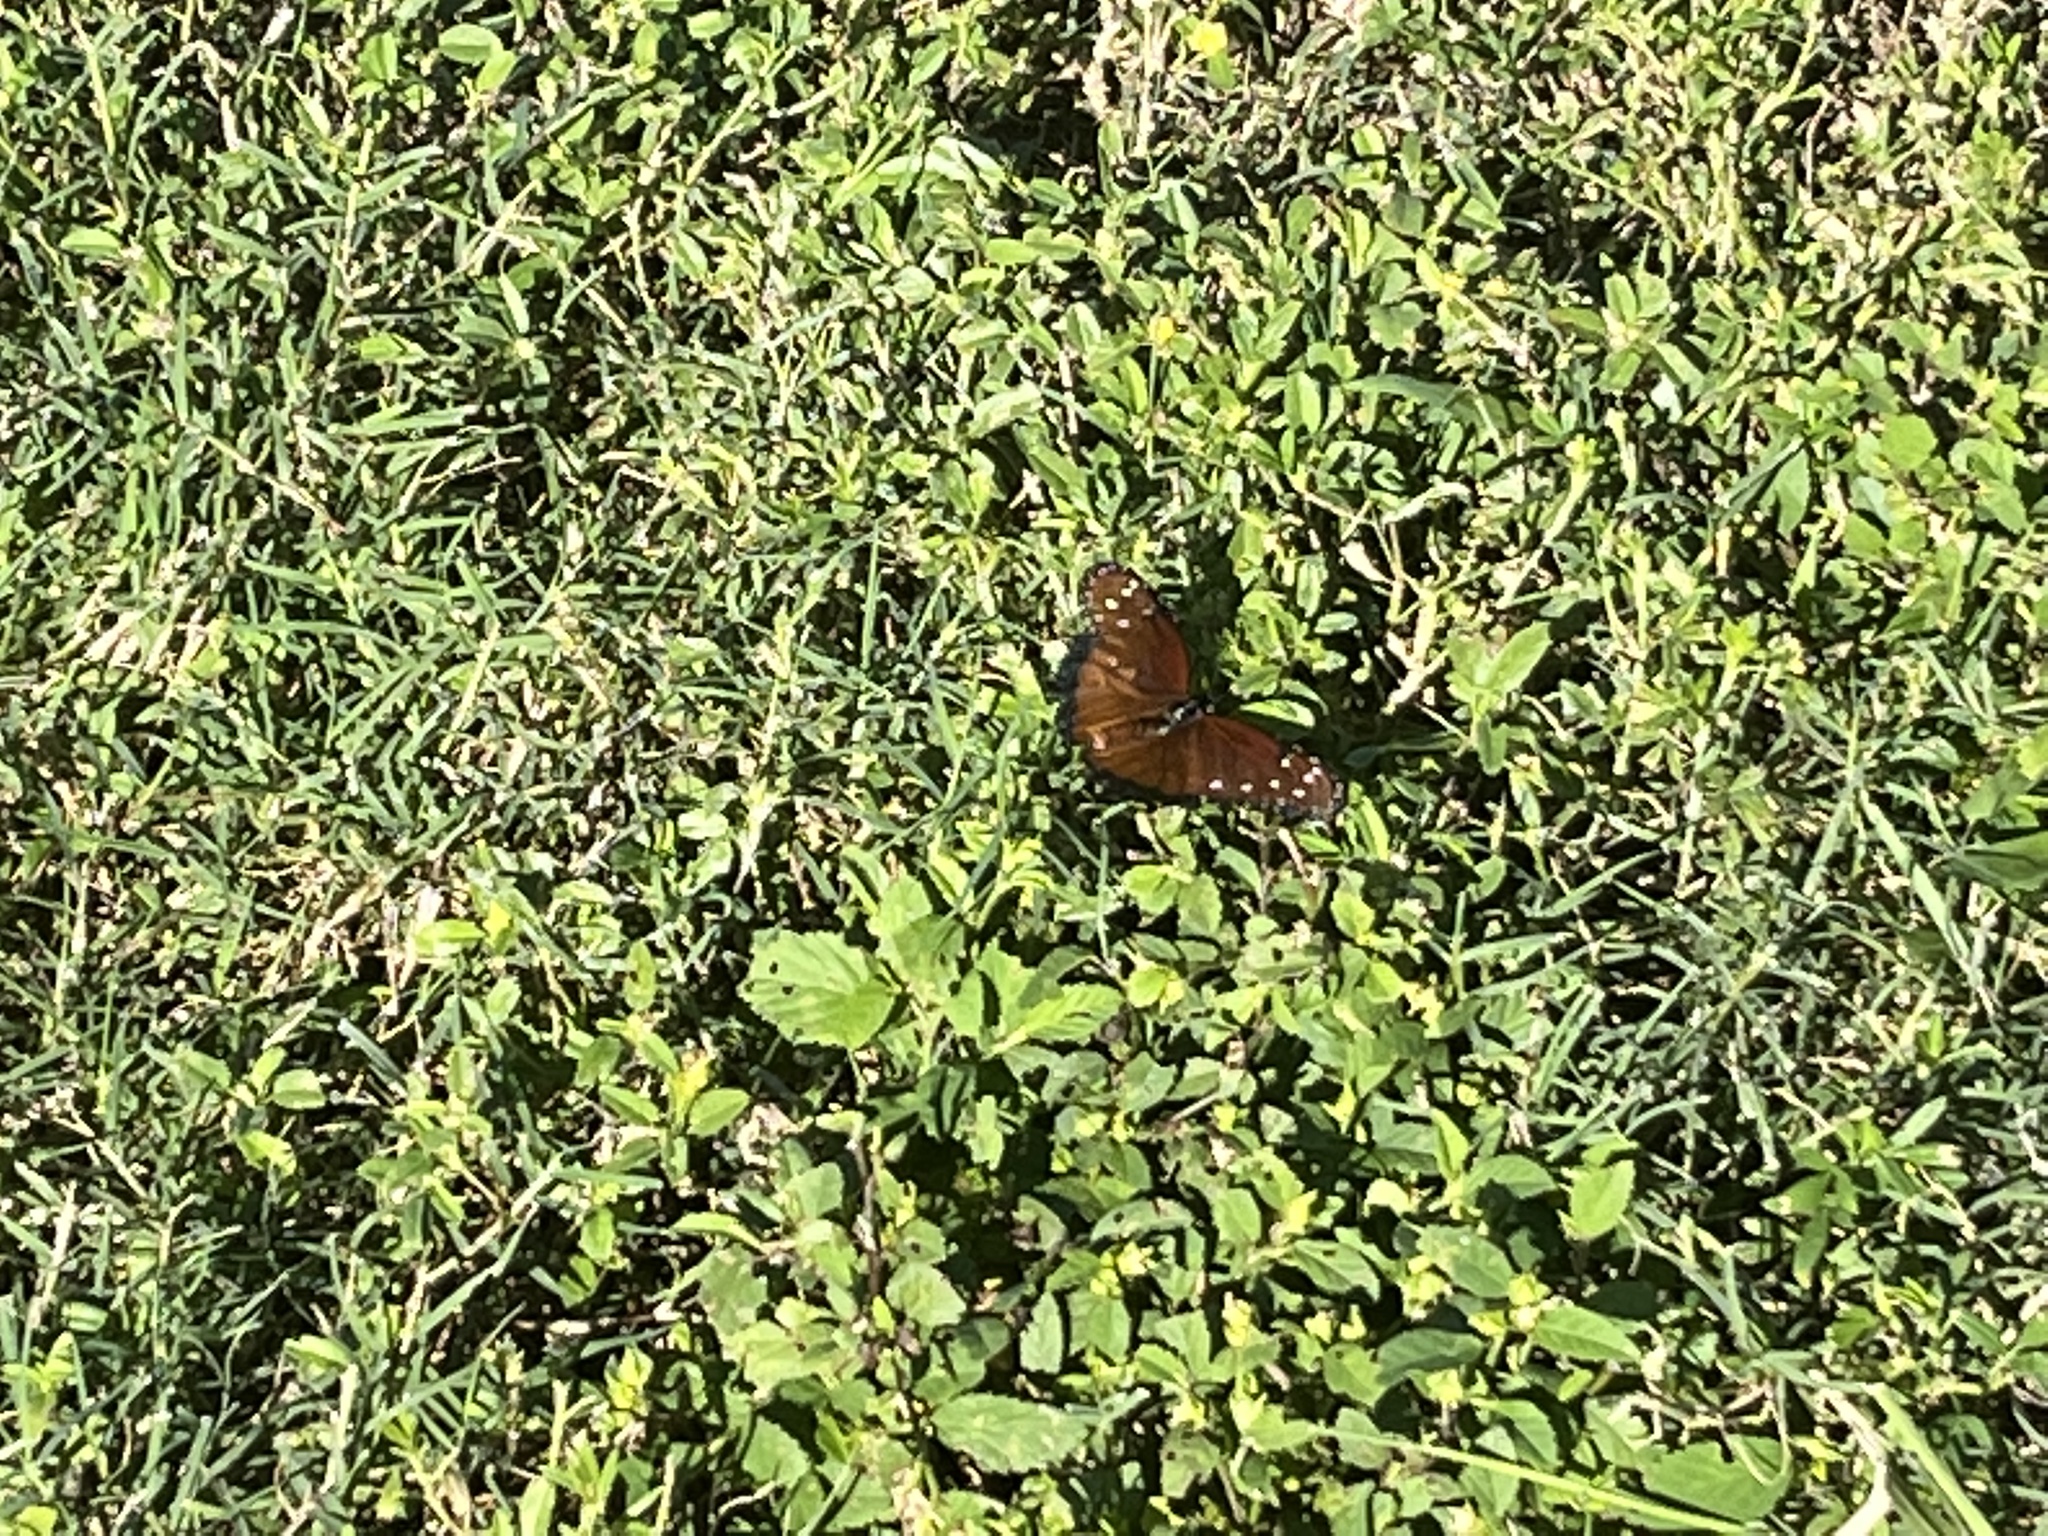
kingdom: Animalia
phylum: Arthropoda
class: Insecta
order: Lepidoptera
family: Nymphalidae
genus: Danaus
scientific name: Danaus gilippus
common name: Queen
